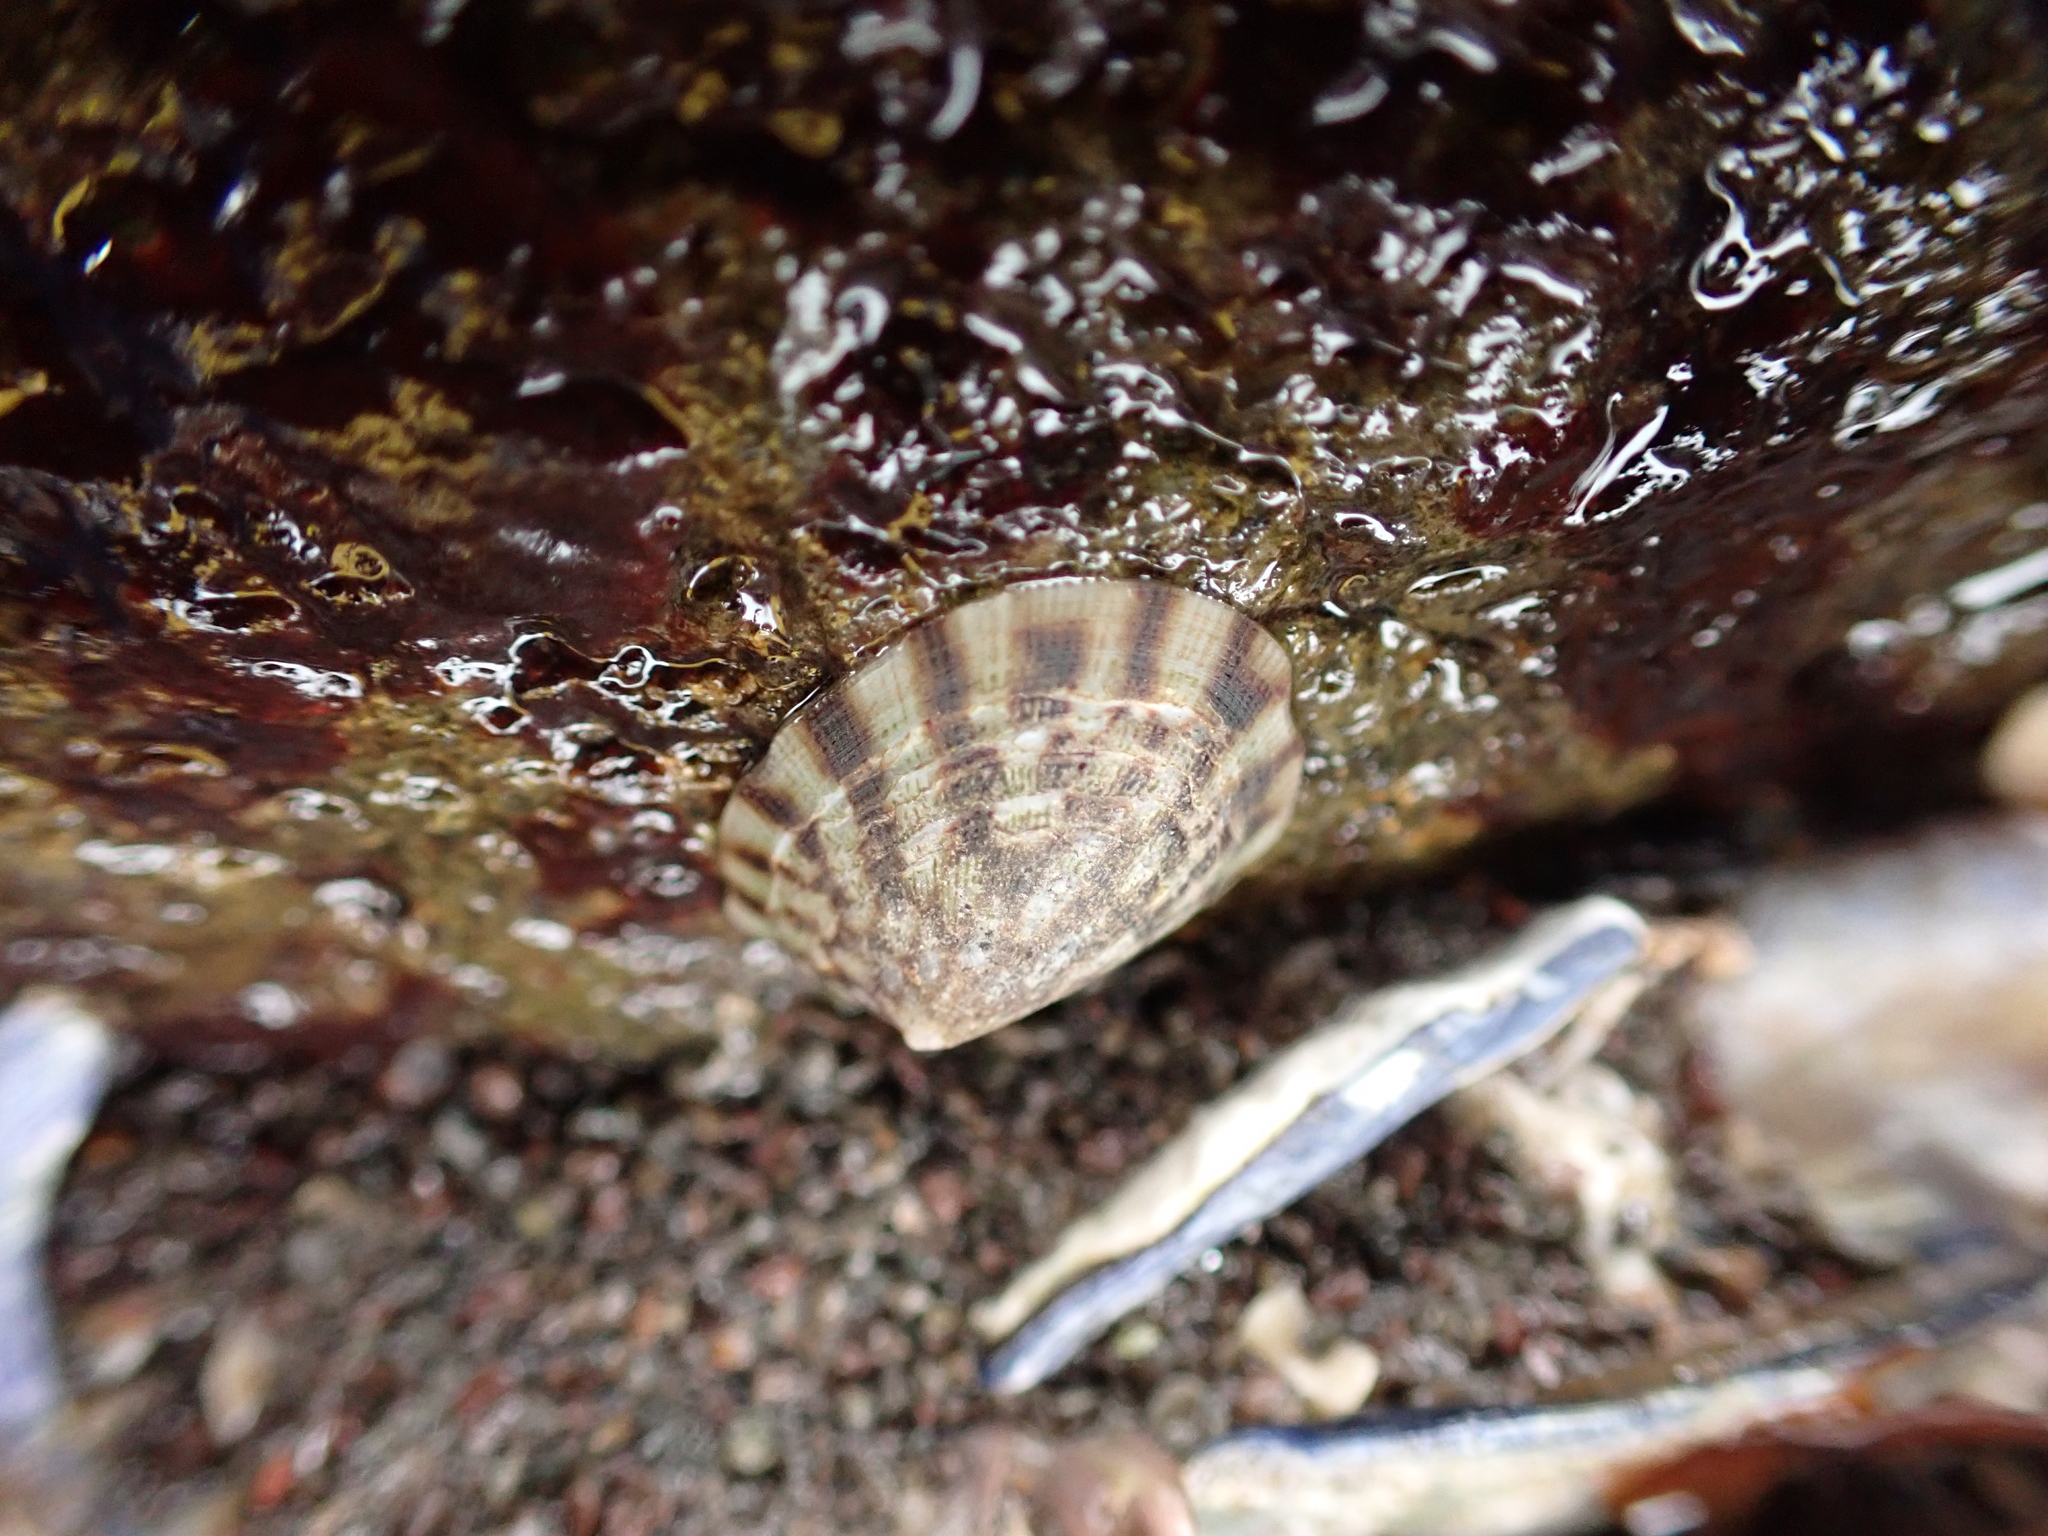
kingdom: Animalia
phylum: Mollusca
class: Gastropoda
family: Lottiidae
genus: Testudinalia
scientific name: Testudinalia testudinalis
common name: Common tortoiseshell limpet
